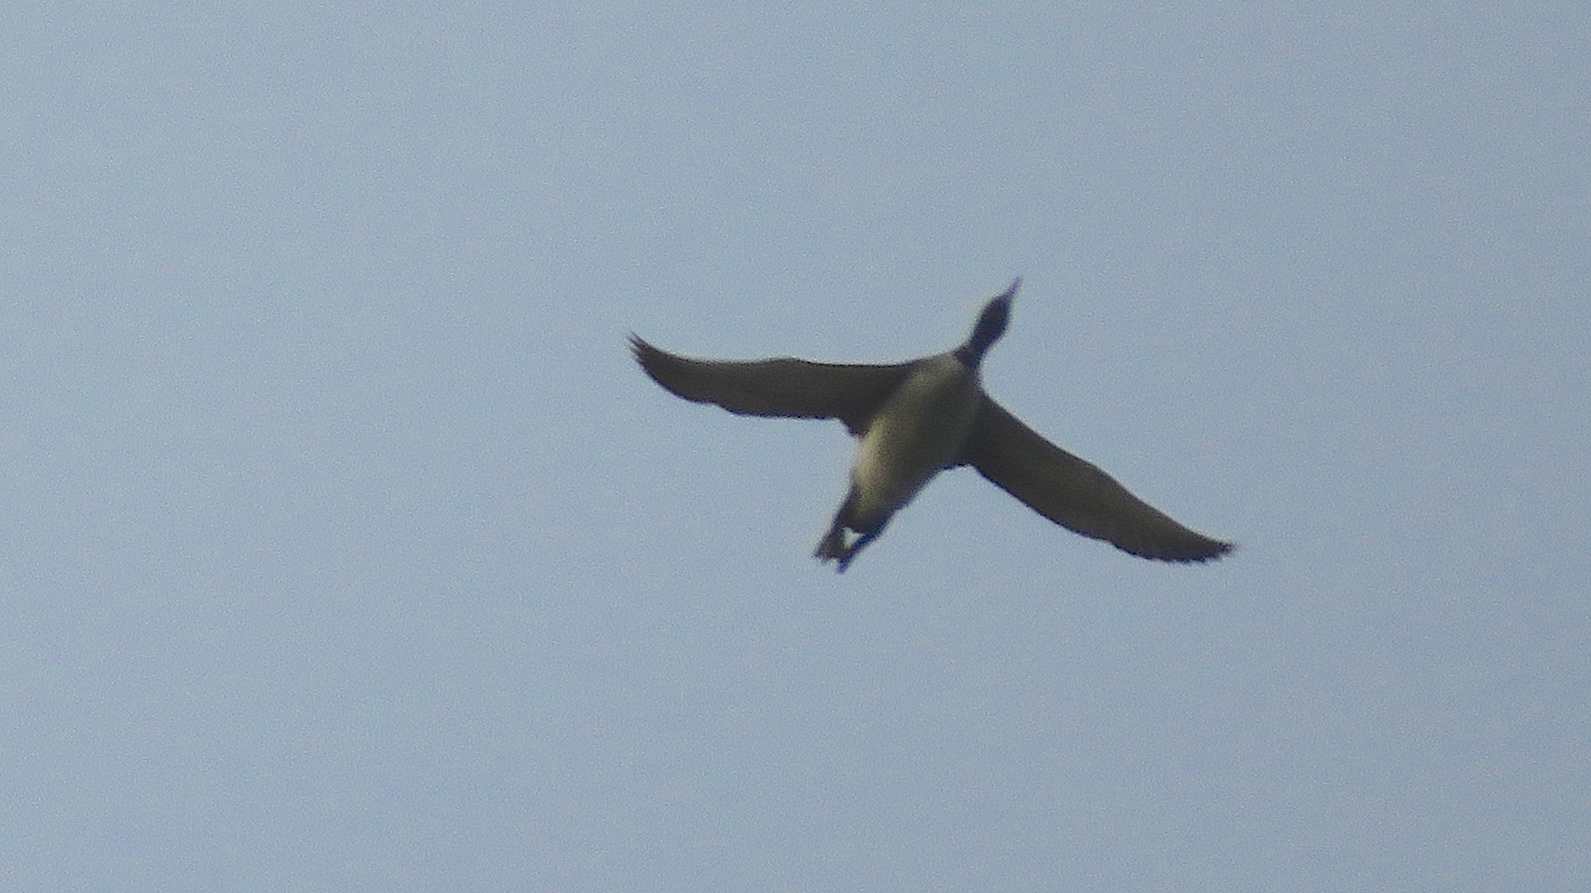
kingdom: Animalia
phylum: Chordata
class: Aves
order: Gaviiformes
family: Gaviidae
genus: Gavia
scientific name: Gavia immer
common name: Common loon
